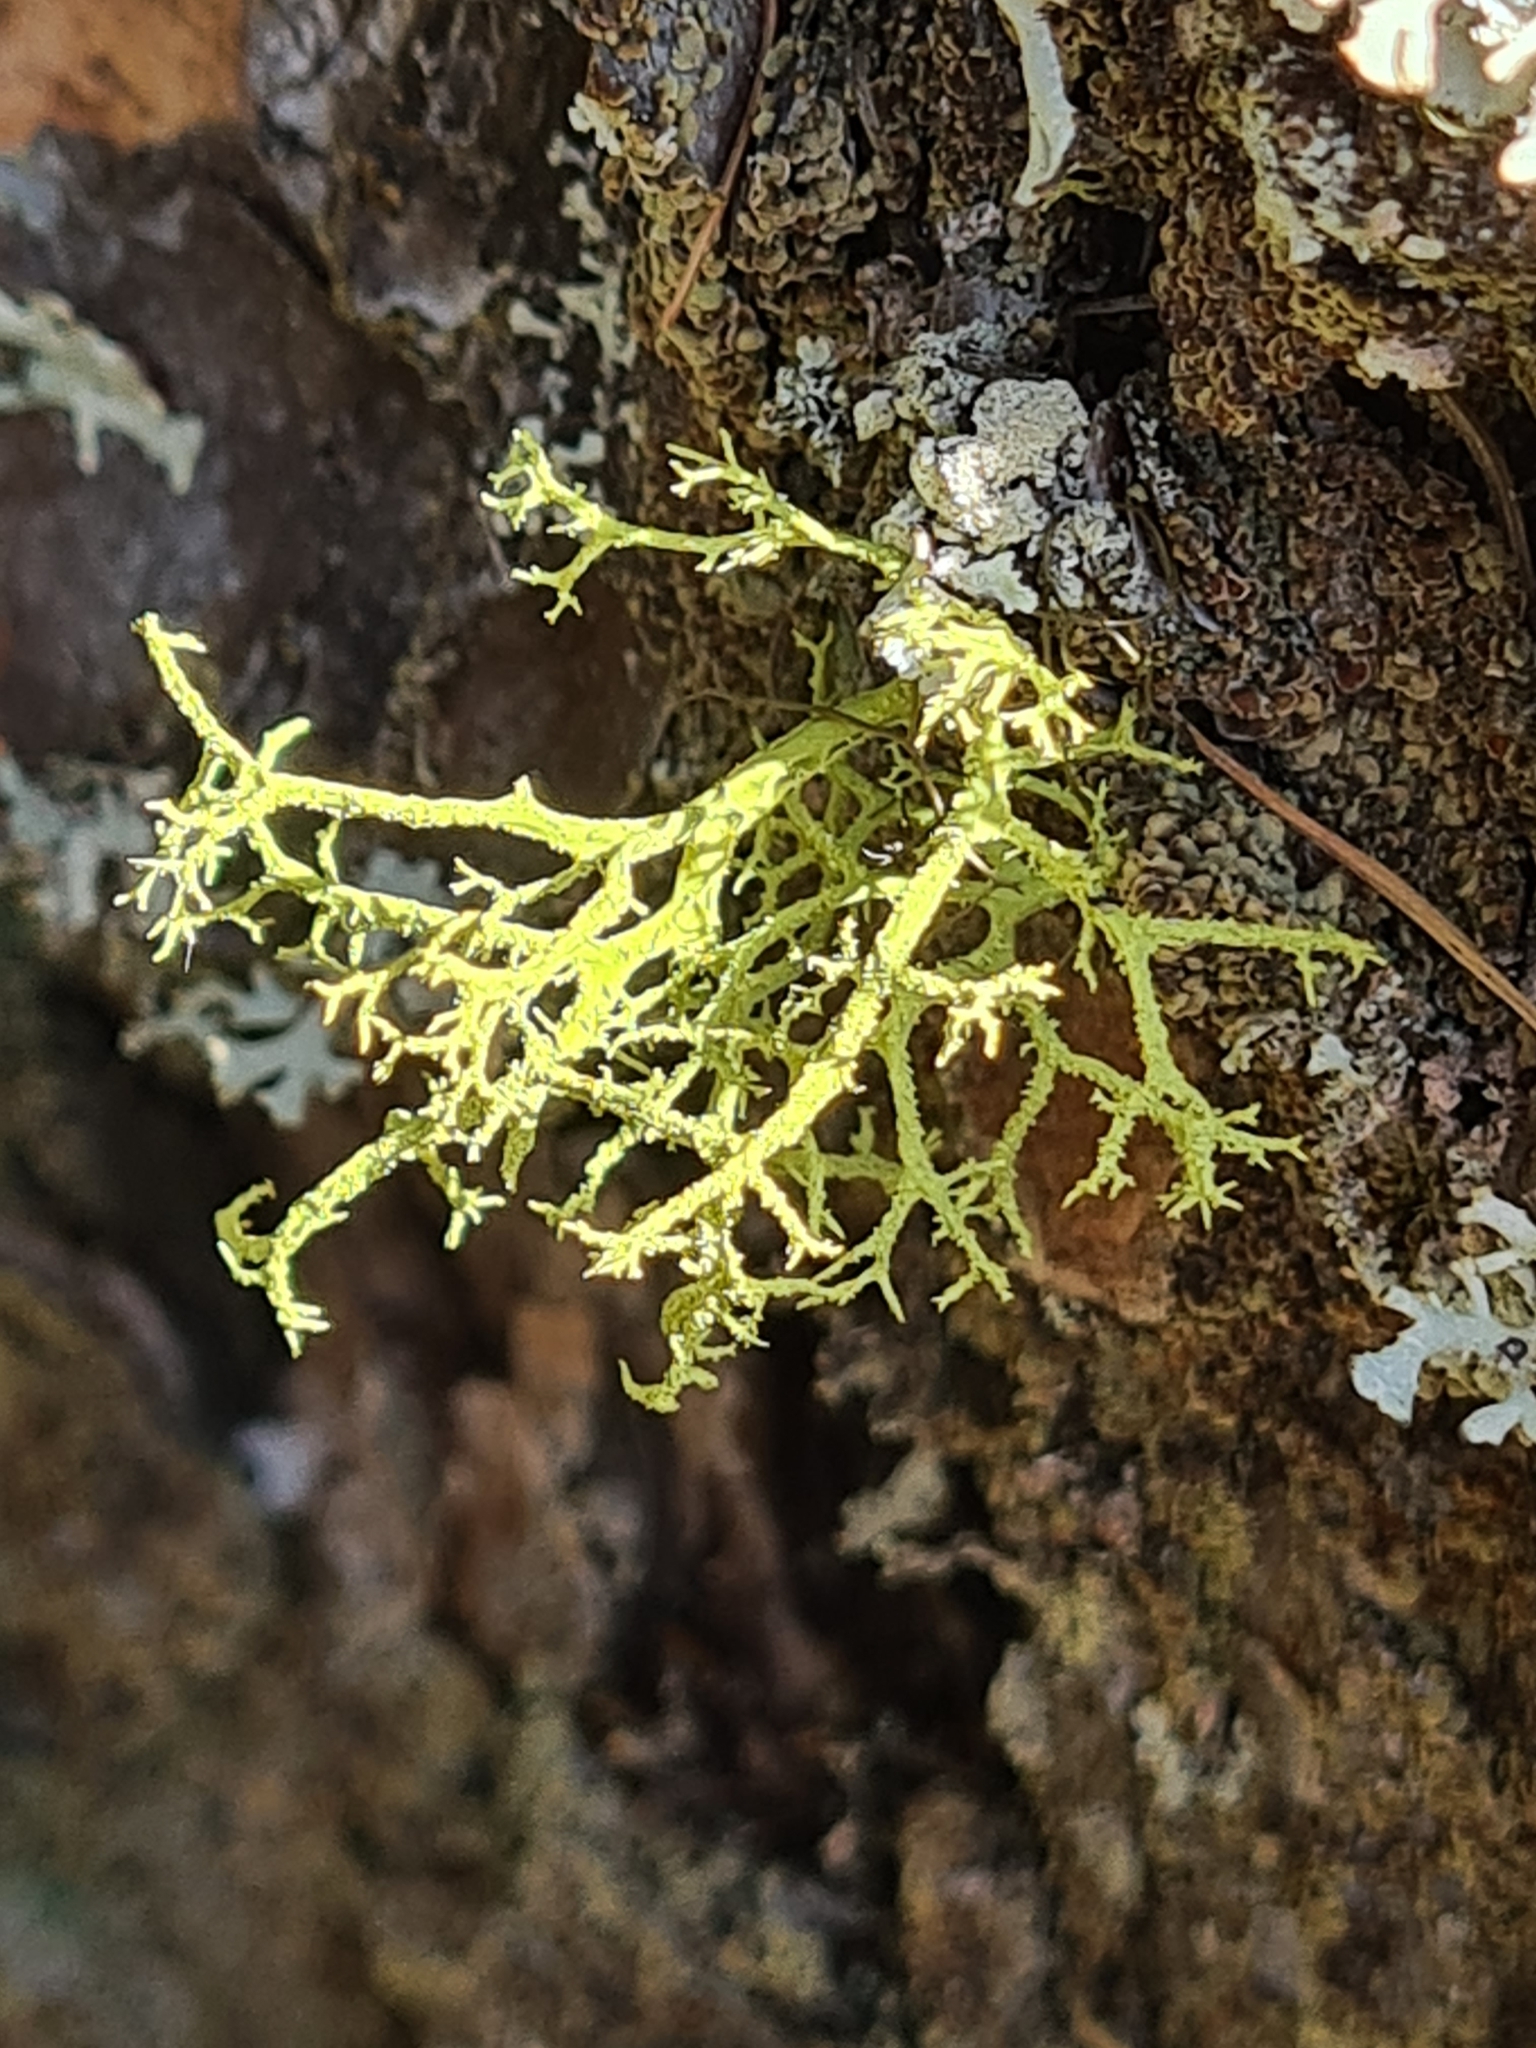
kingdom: Fungi
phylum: Ascomycota
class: Lecanoromycetes
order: Lecanorales
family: Parmeliaceae
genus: Letharia
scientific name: Letharia vulpina
